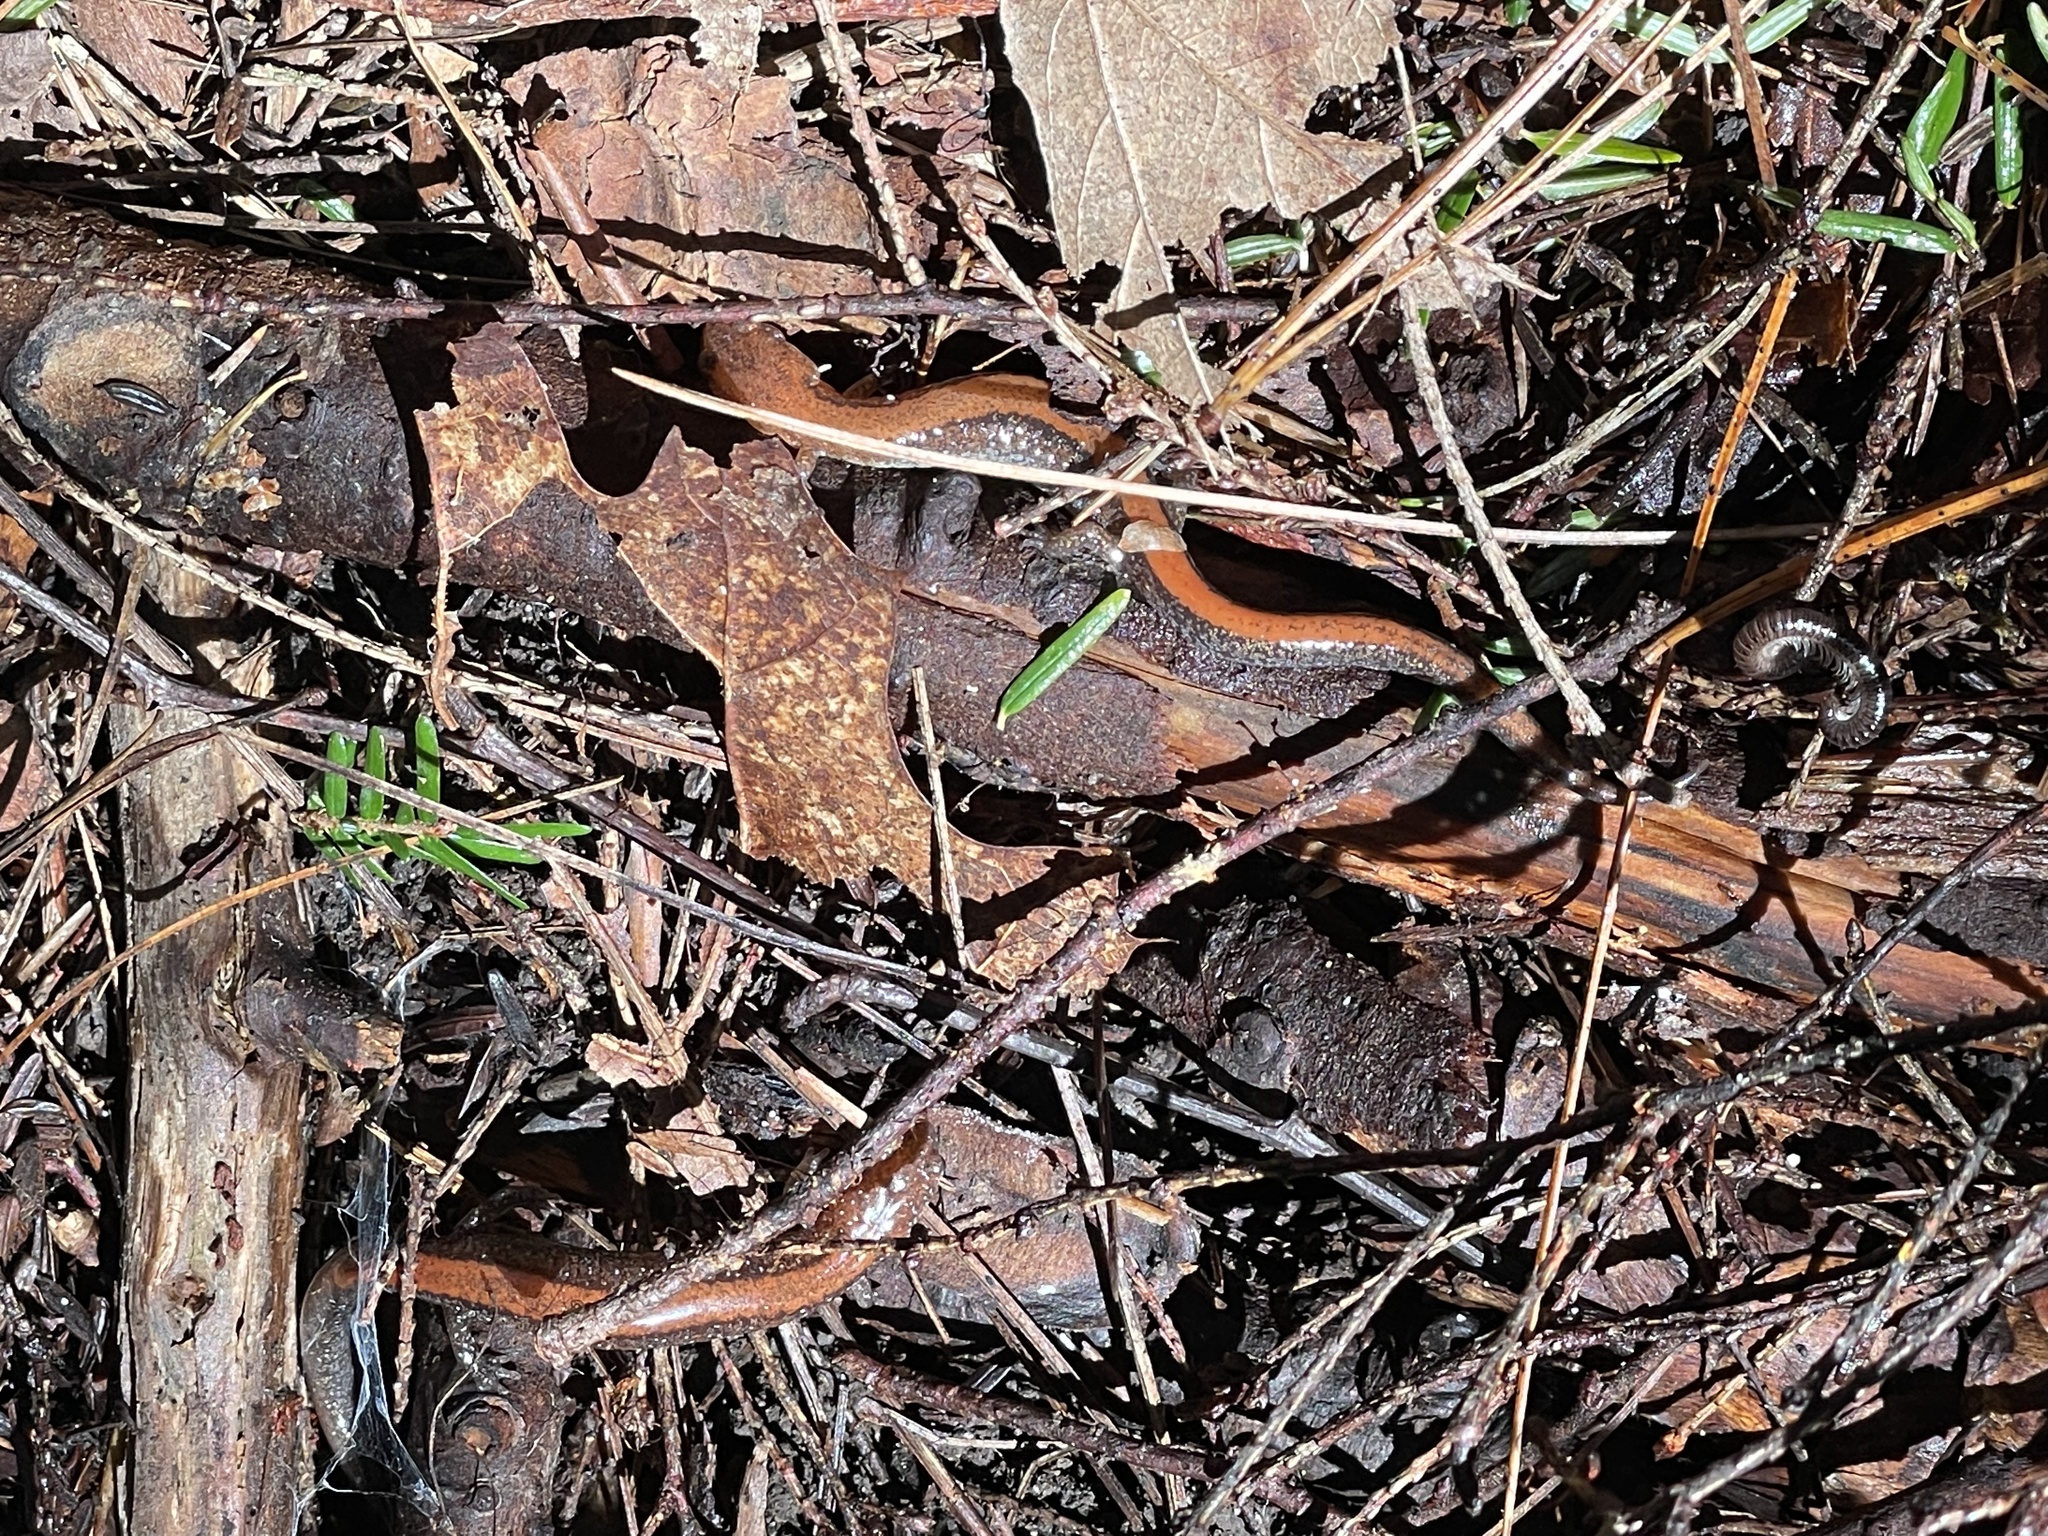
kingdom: Animalia
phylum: Chordata
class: Amphibia
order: Caudata
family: Plethodontidae
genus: Plethodon
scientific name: Plethodon cinereus
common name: Redback salamander
